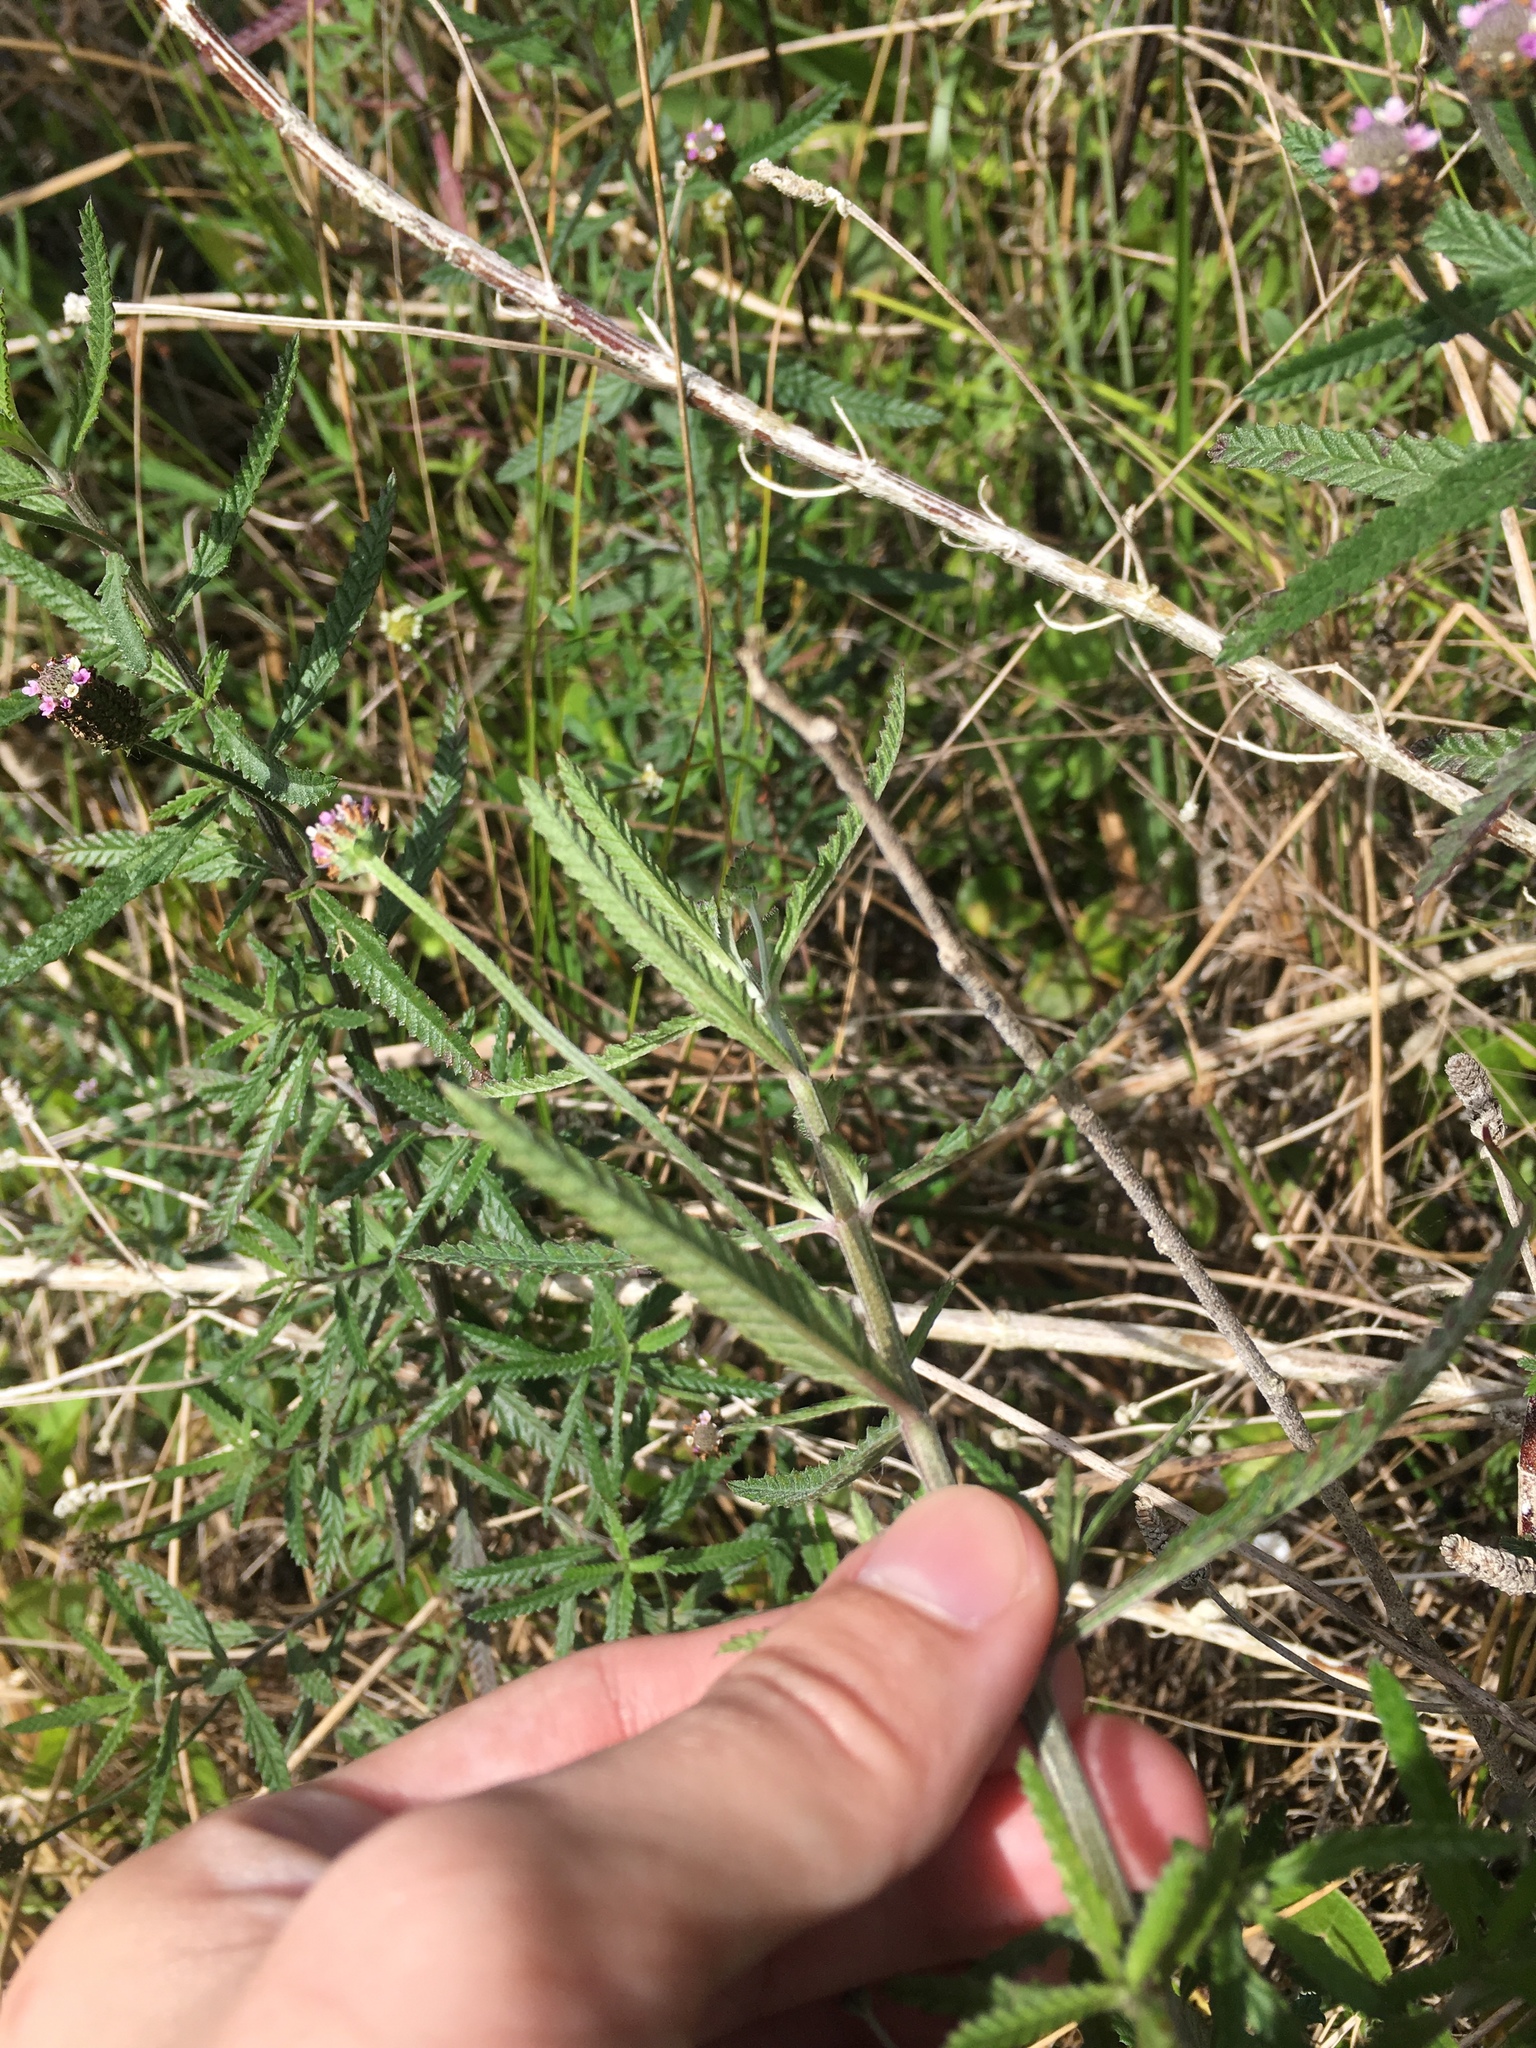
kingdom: Plantae
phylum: Tracheophyta
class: Magnoliopsida
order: Lamiales
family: Verbenaceae
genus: Lippia
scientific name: Lippia stoechadifolia
